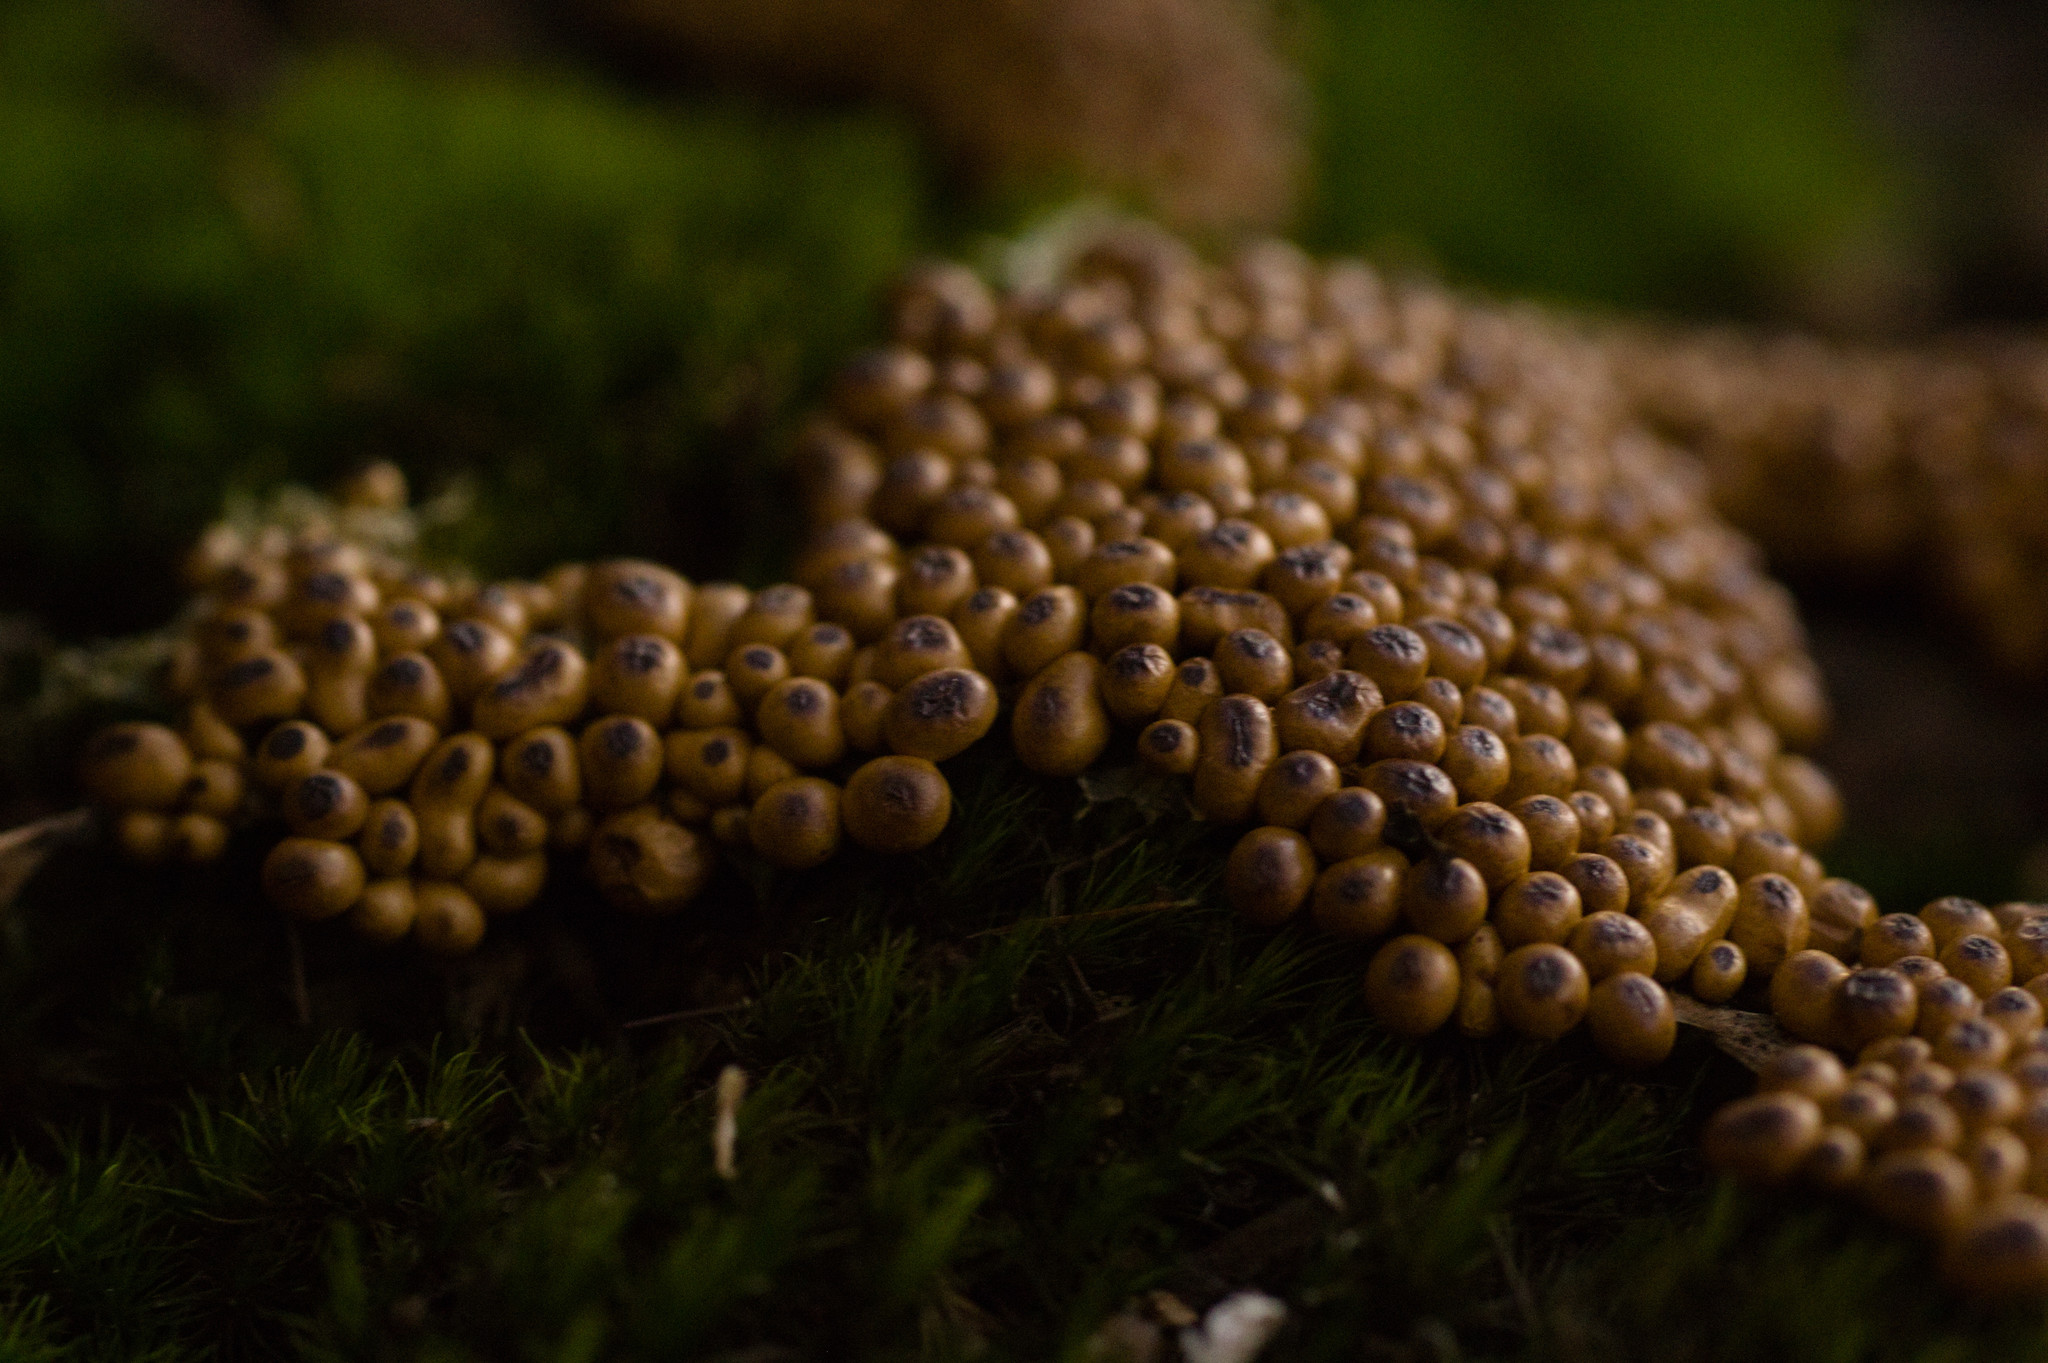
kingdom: Protozoa
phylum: Mycetozoa
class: Myxomycetes
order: Physarales
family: Physaraceae
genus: Leocarpus
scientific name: Leocarpus fragilis
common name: Insect-egg slime
